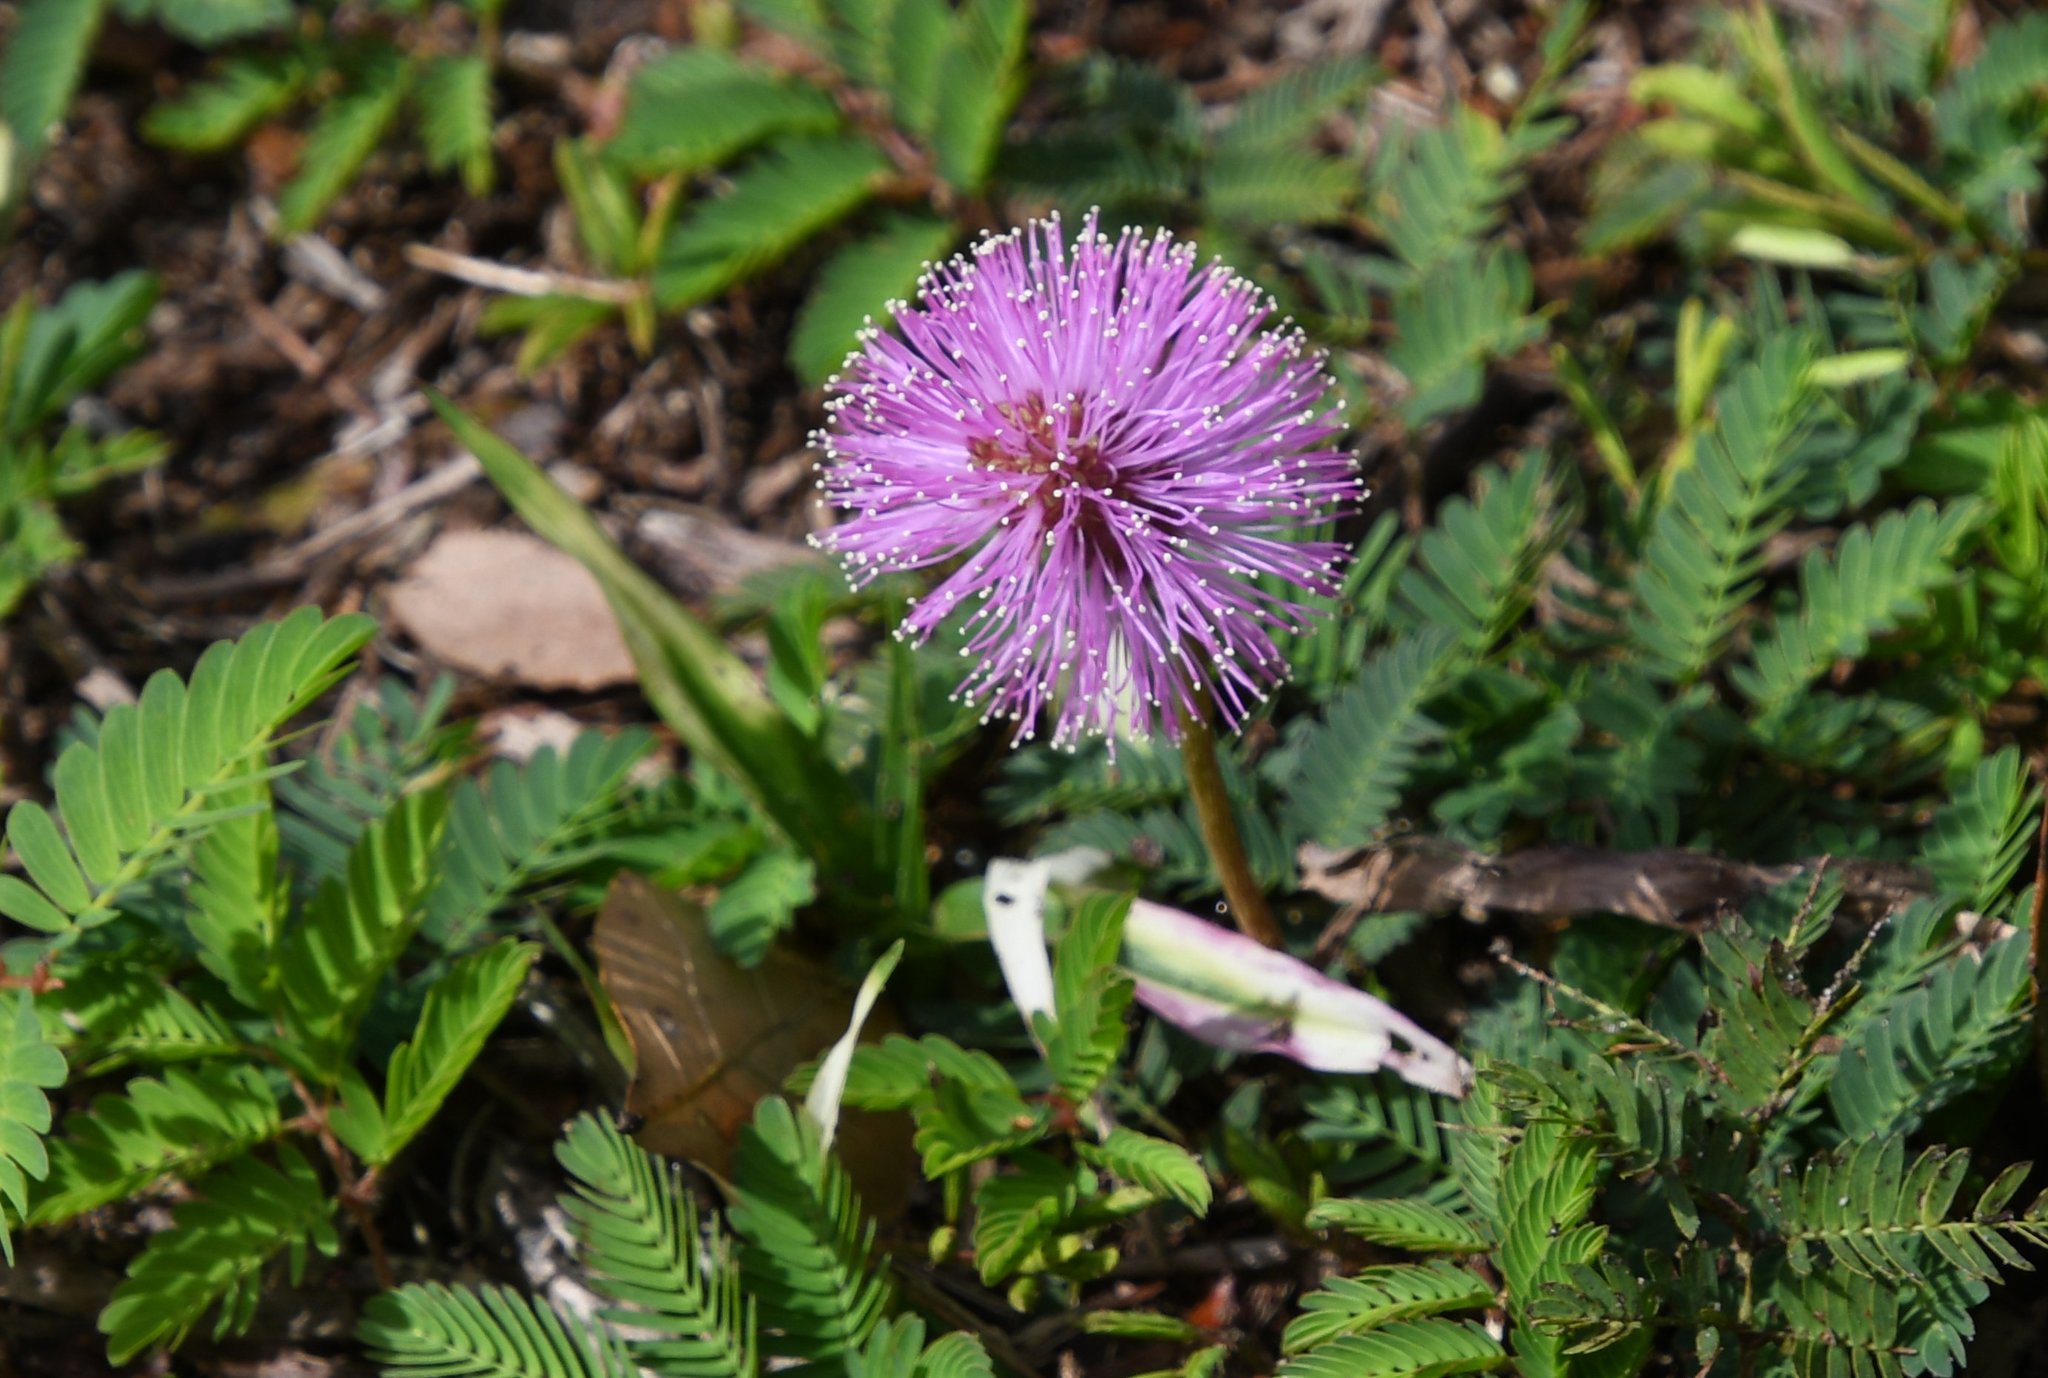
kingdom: Plantae
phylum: Tracheophyta
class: Magnoliopsida
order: Fabales
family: Fabaceae
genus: Mimosa
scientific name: Mimosa strigillosa
